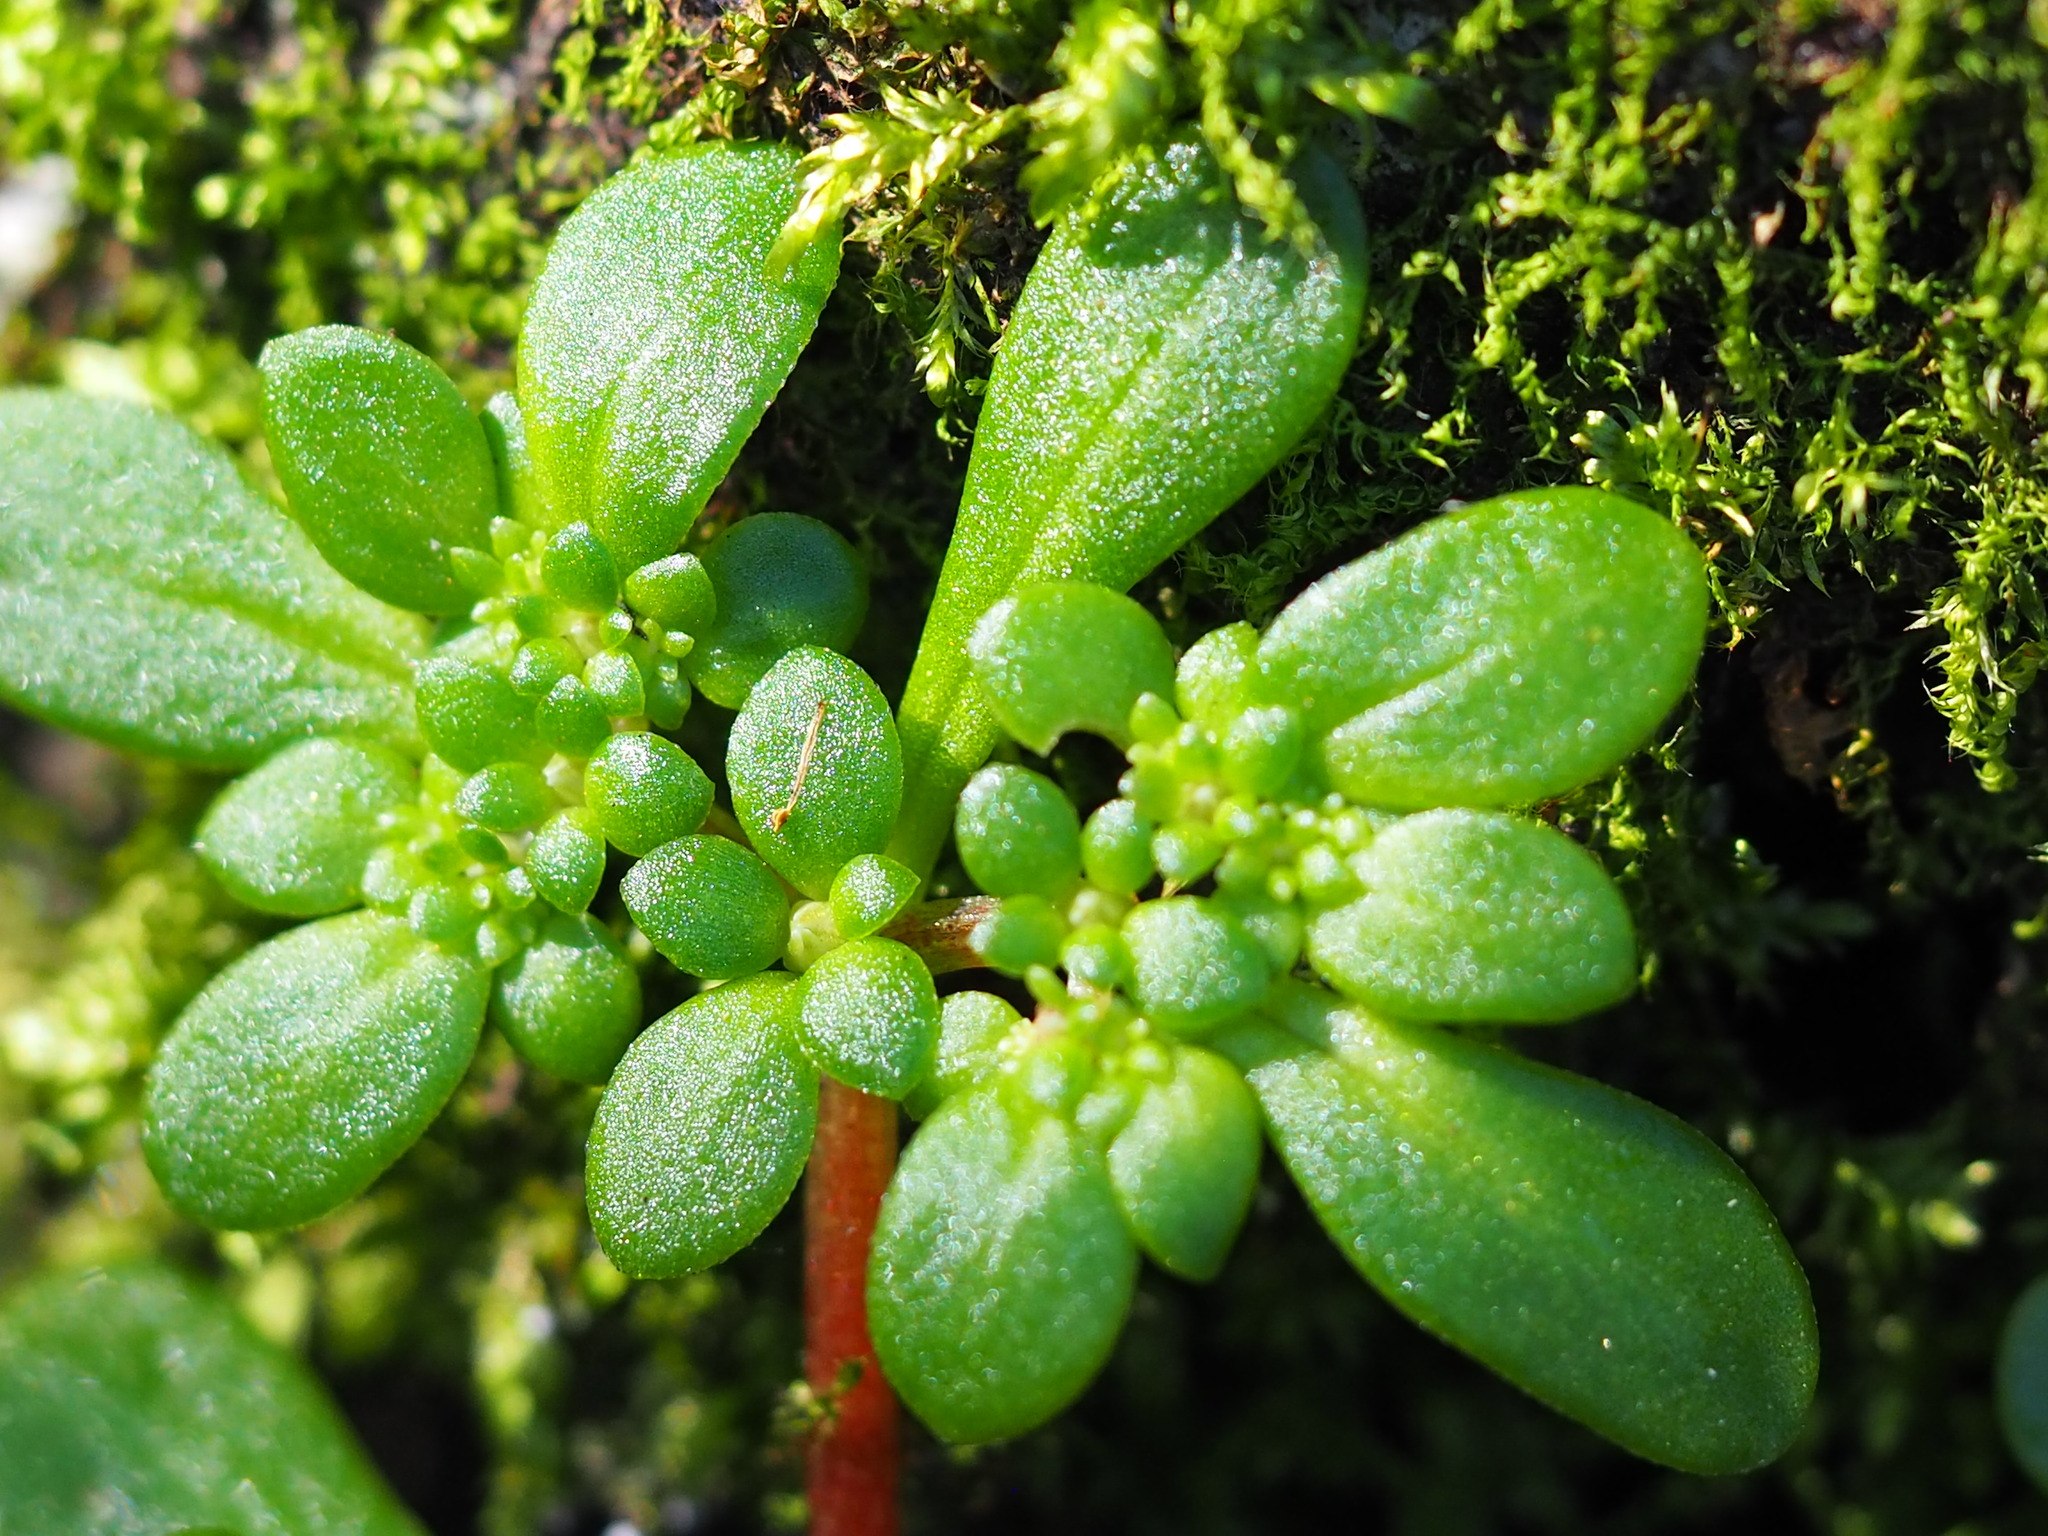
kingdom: Plantae
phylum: Tracheophyta
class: Magnoliopsida
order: Saxifragales
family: Crassulaceae
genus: Sedum
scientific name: Sedum actinocarpum
